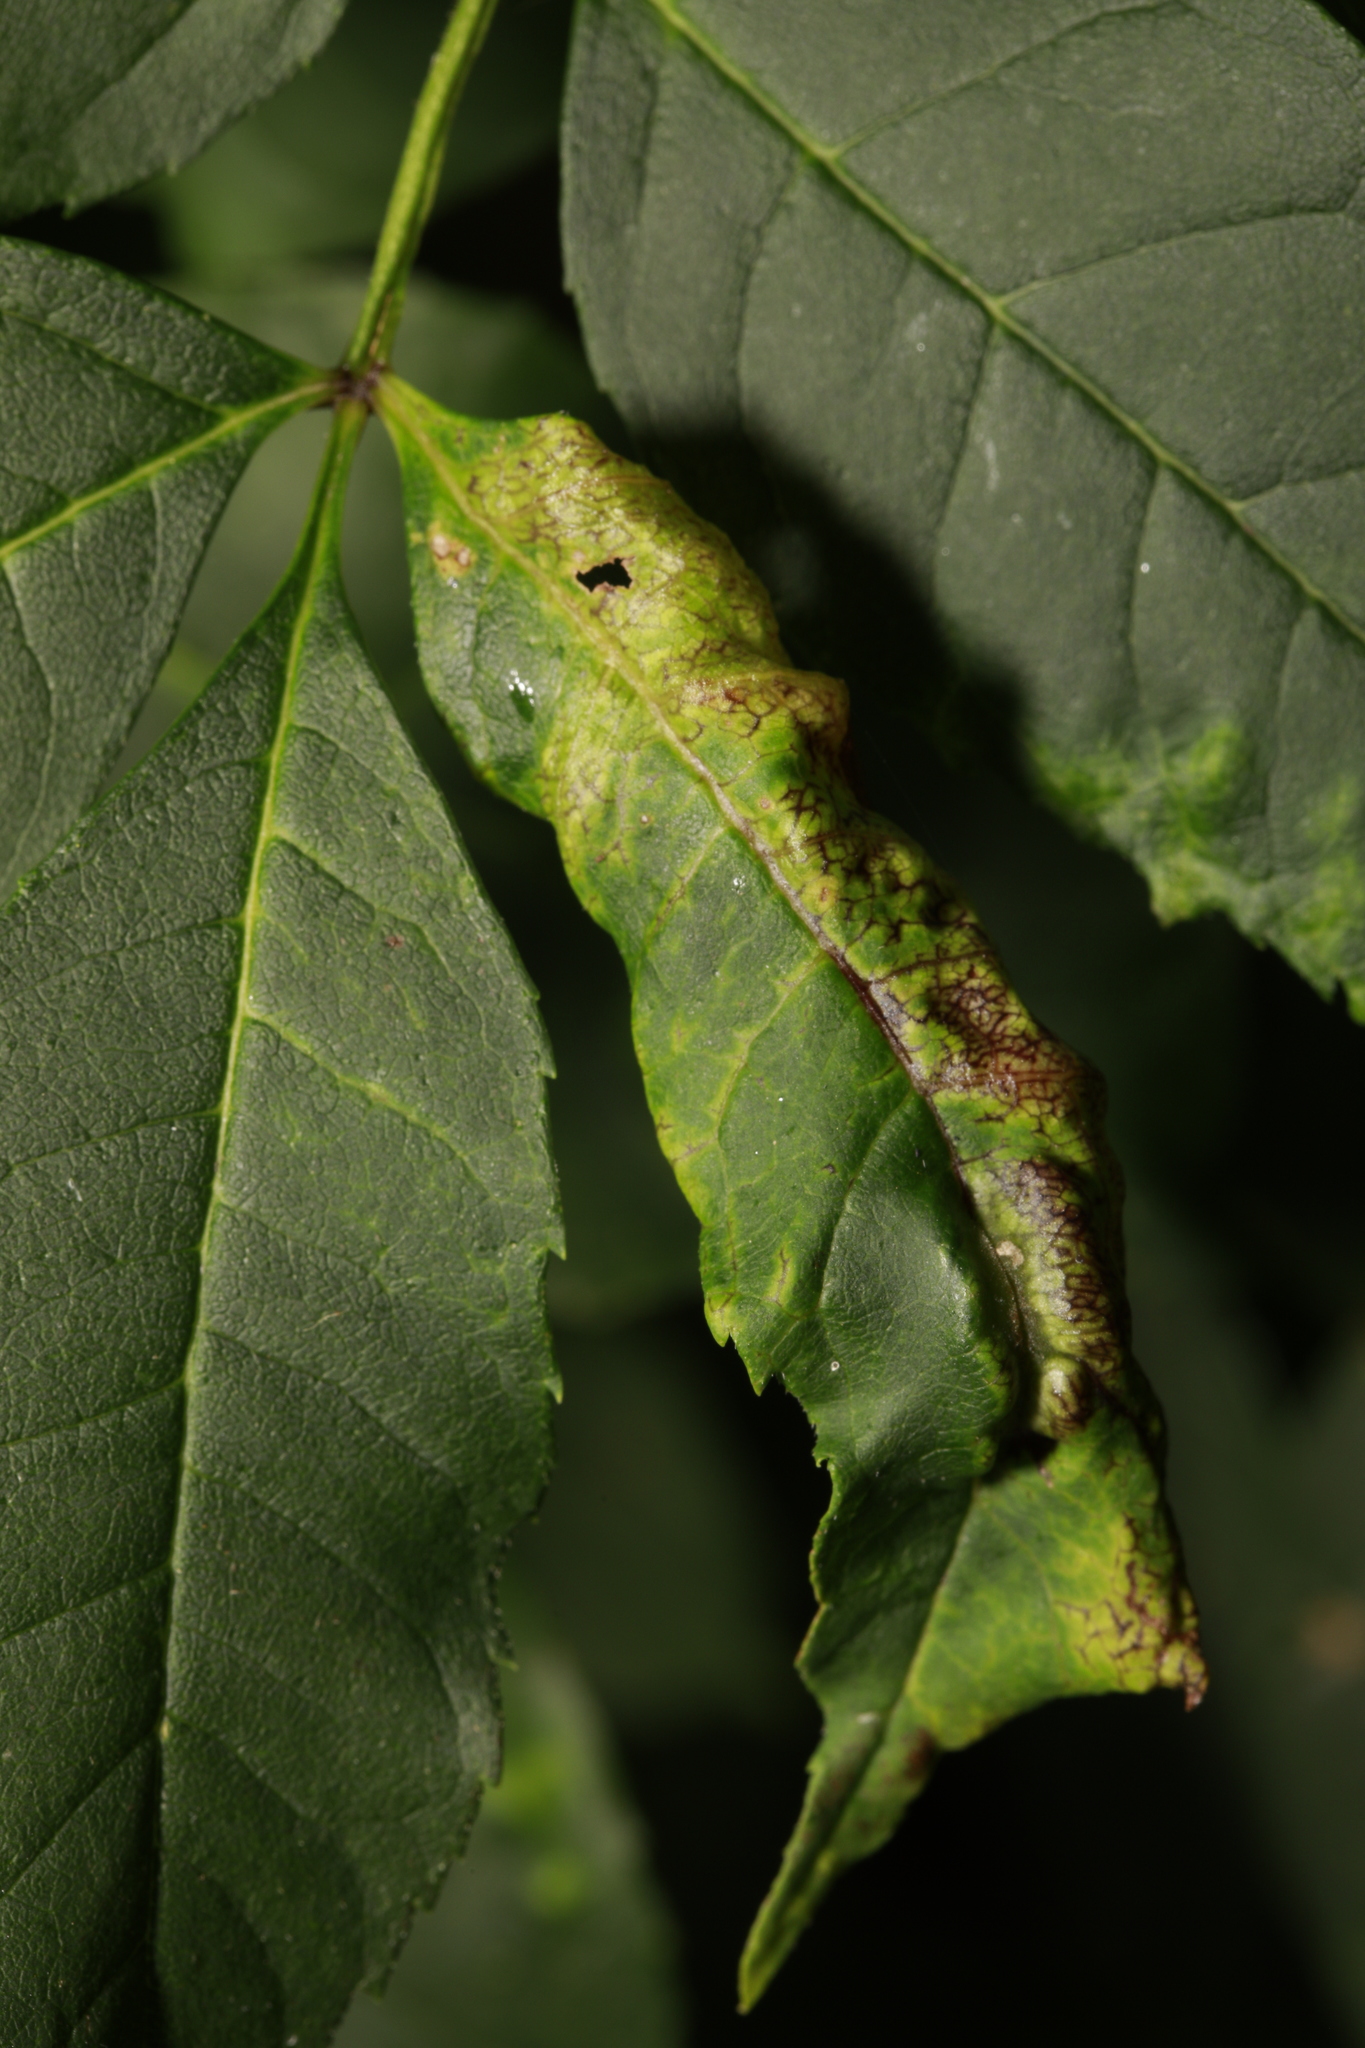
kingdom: Animalia
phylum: Arthropoda
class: Insecta
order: Hemiptera
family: Liviidae
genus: Psyllopsis
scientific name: Psyllopsis fraxini
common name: Jumping plant louse
